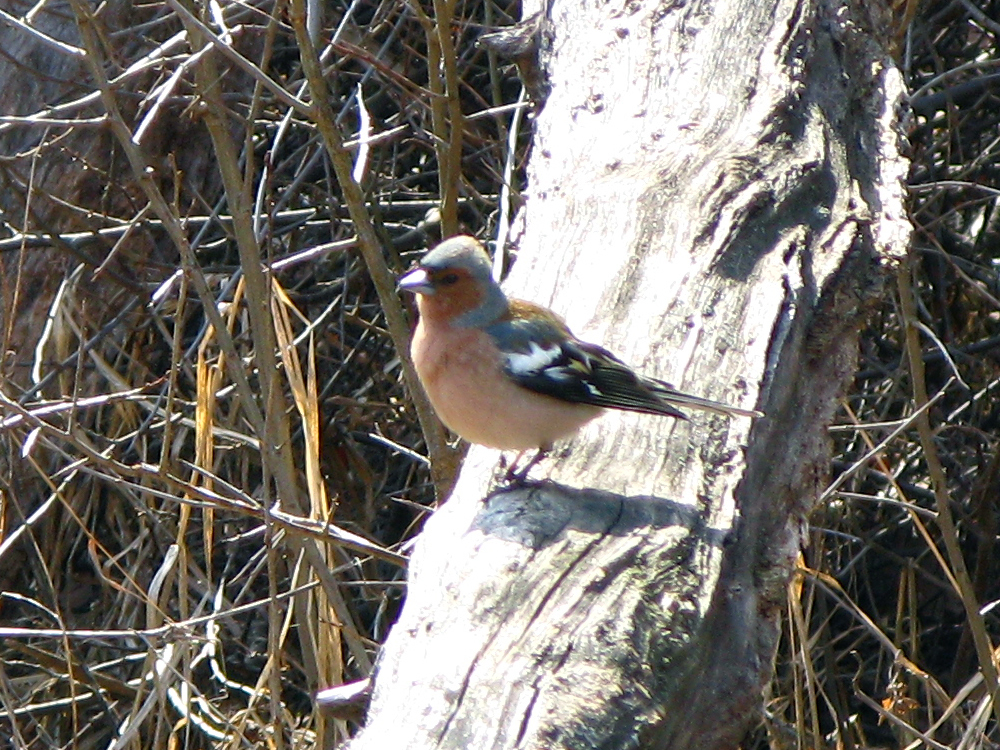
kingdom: Animalia
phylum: Chordata
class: Aves
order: Passeriformes
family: Fringillidae
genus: Fringilla
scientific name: Fringilla coelebs
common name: Common chaffinch
